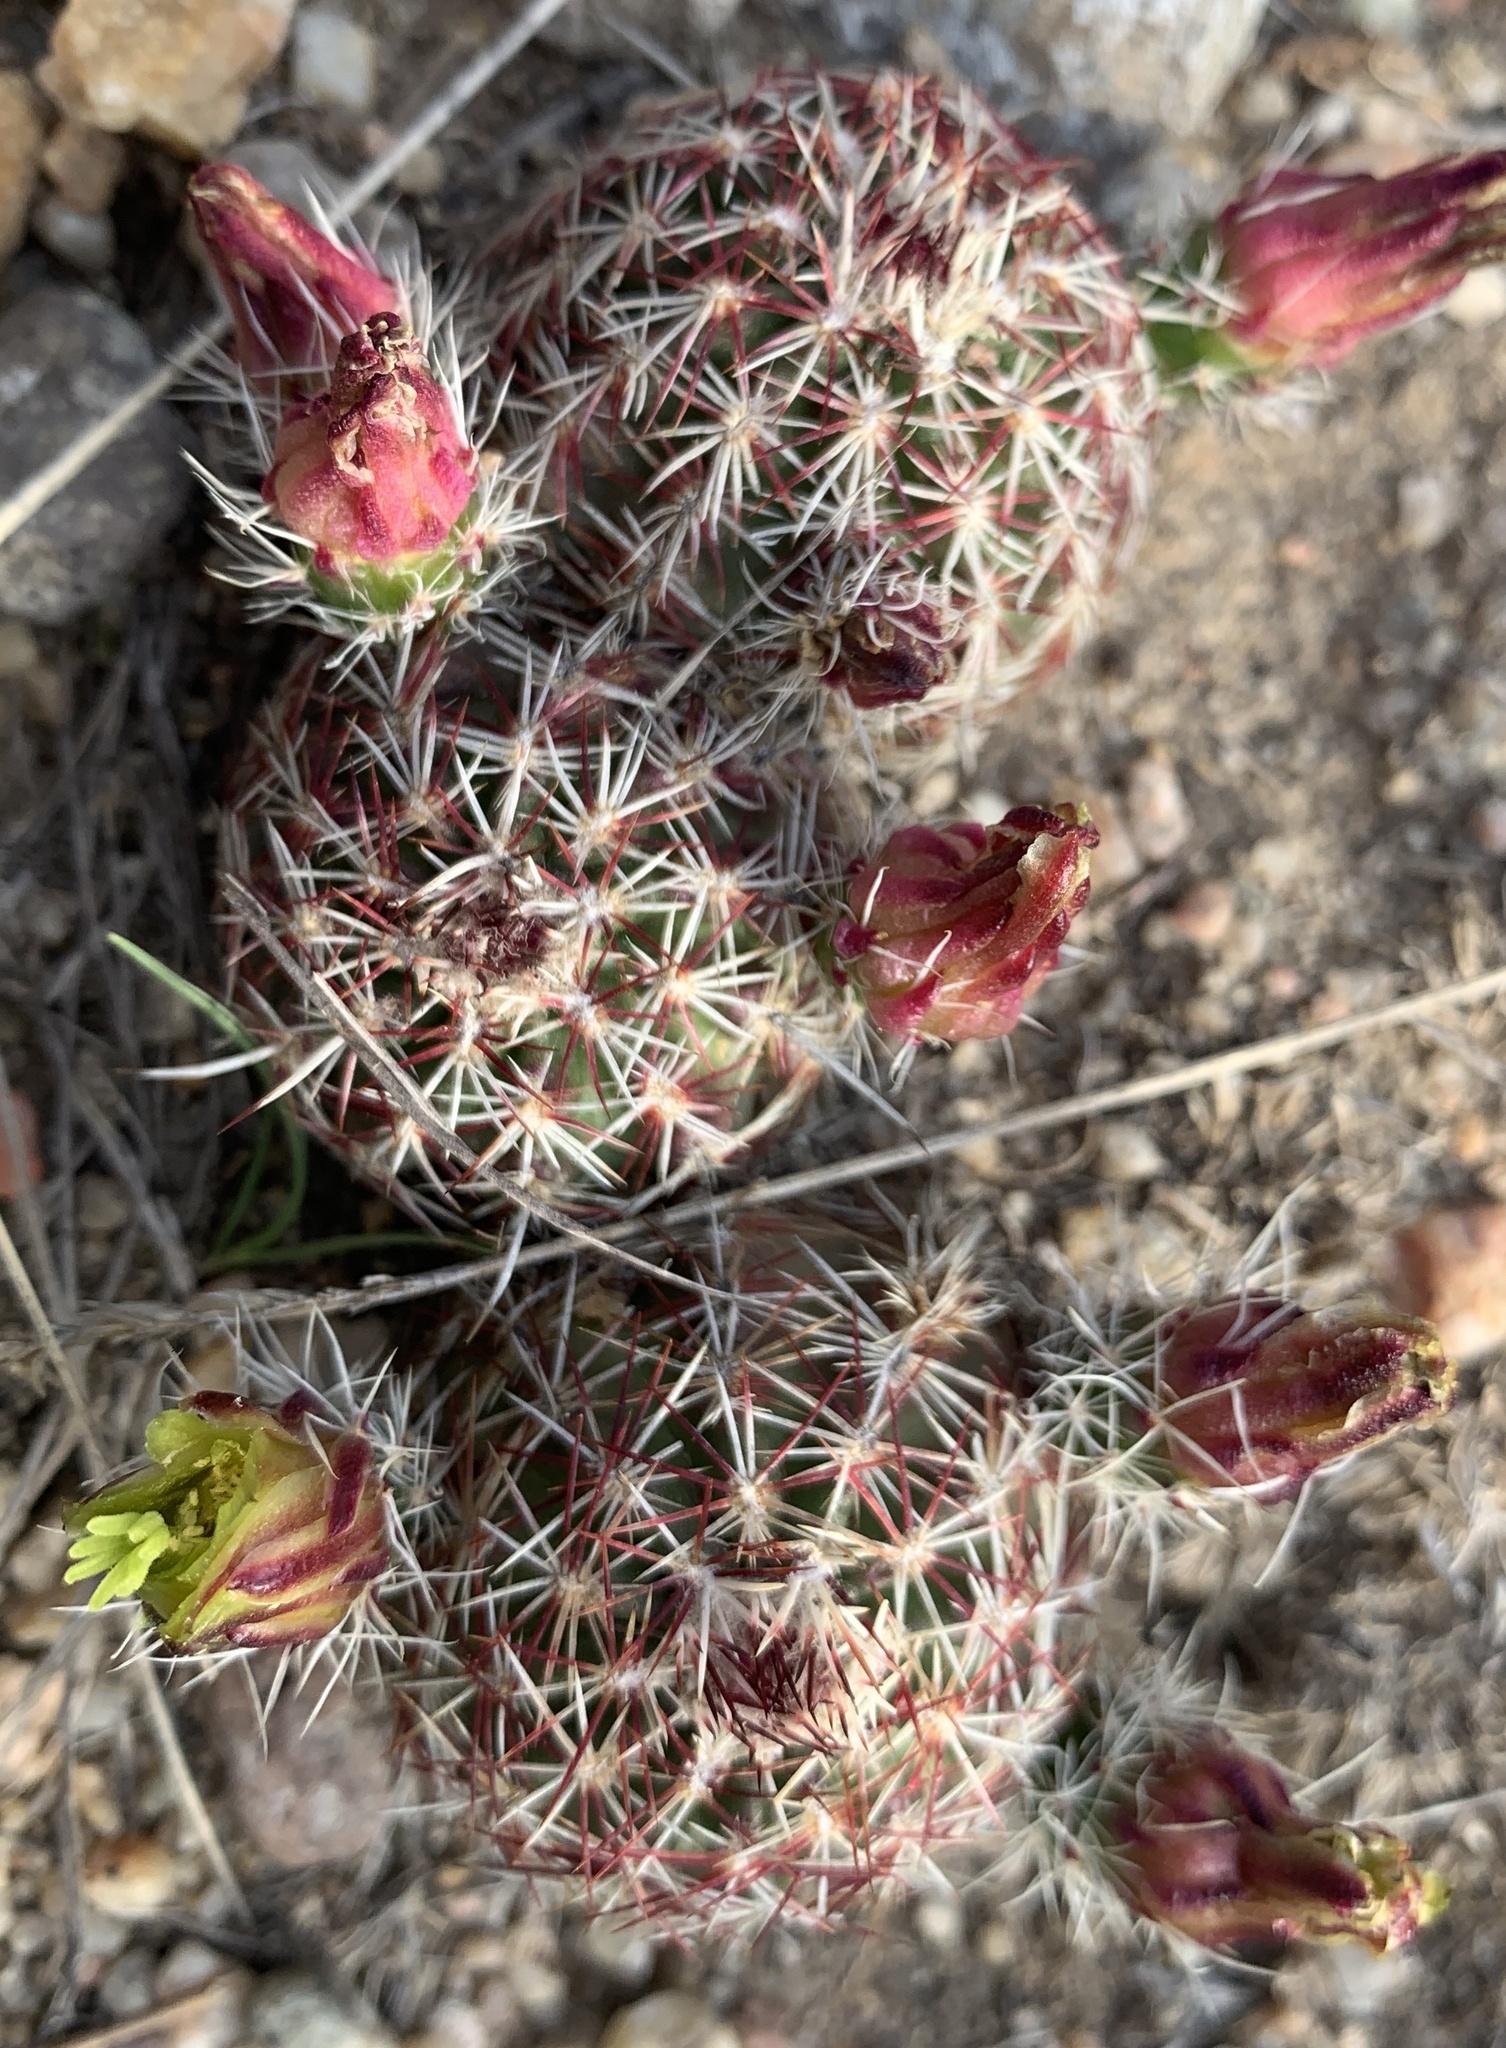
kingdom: Plantae
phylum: Tracheophyta
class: Magnoliopsida
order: Caryophyllales
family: Cactaceae
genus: Echinocereus
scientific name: Echinocereus viridiflorus
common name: Nylon hedgehog cactus
